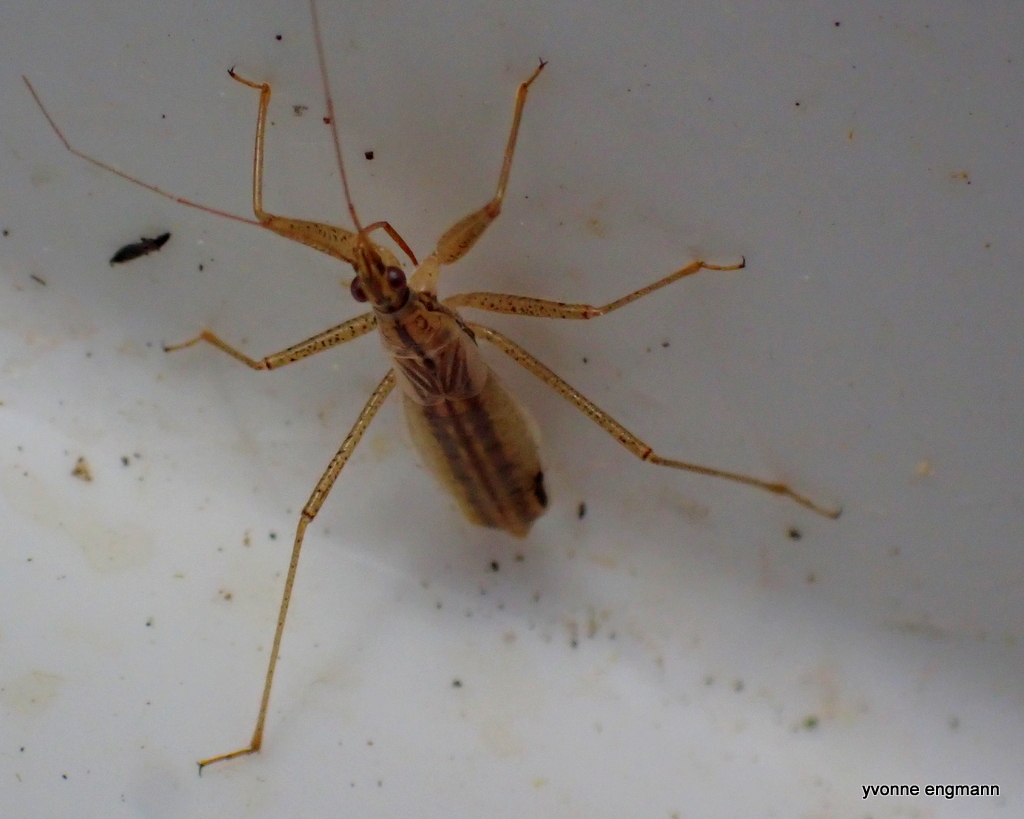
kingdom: Animalia
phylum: Arthropoda
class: Insecta
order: Hemiptera
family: Nabidae
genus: Nabis
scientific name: Nabis limbatus
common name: Marsh damselbug
